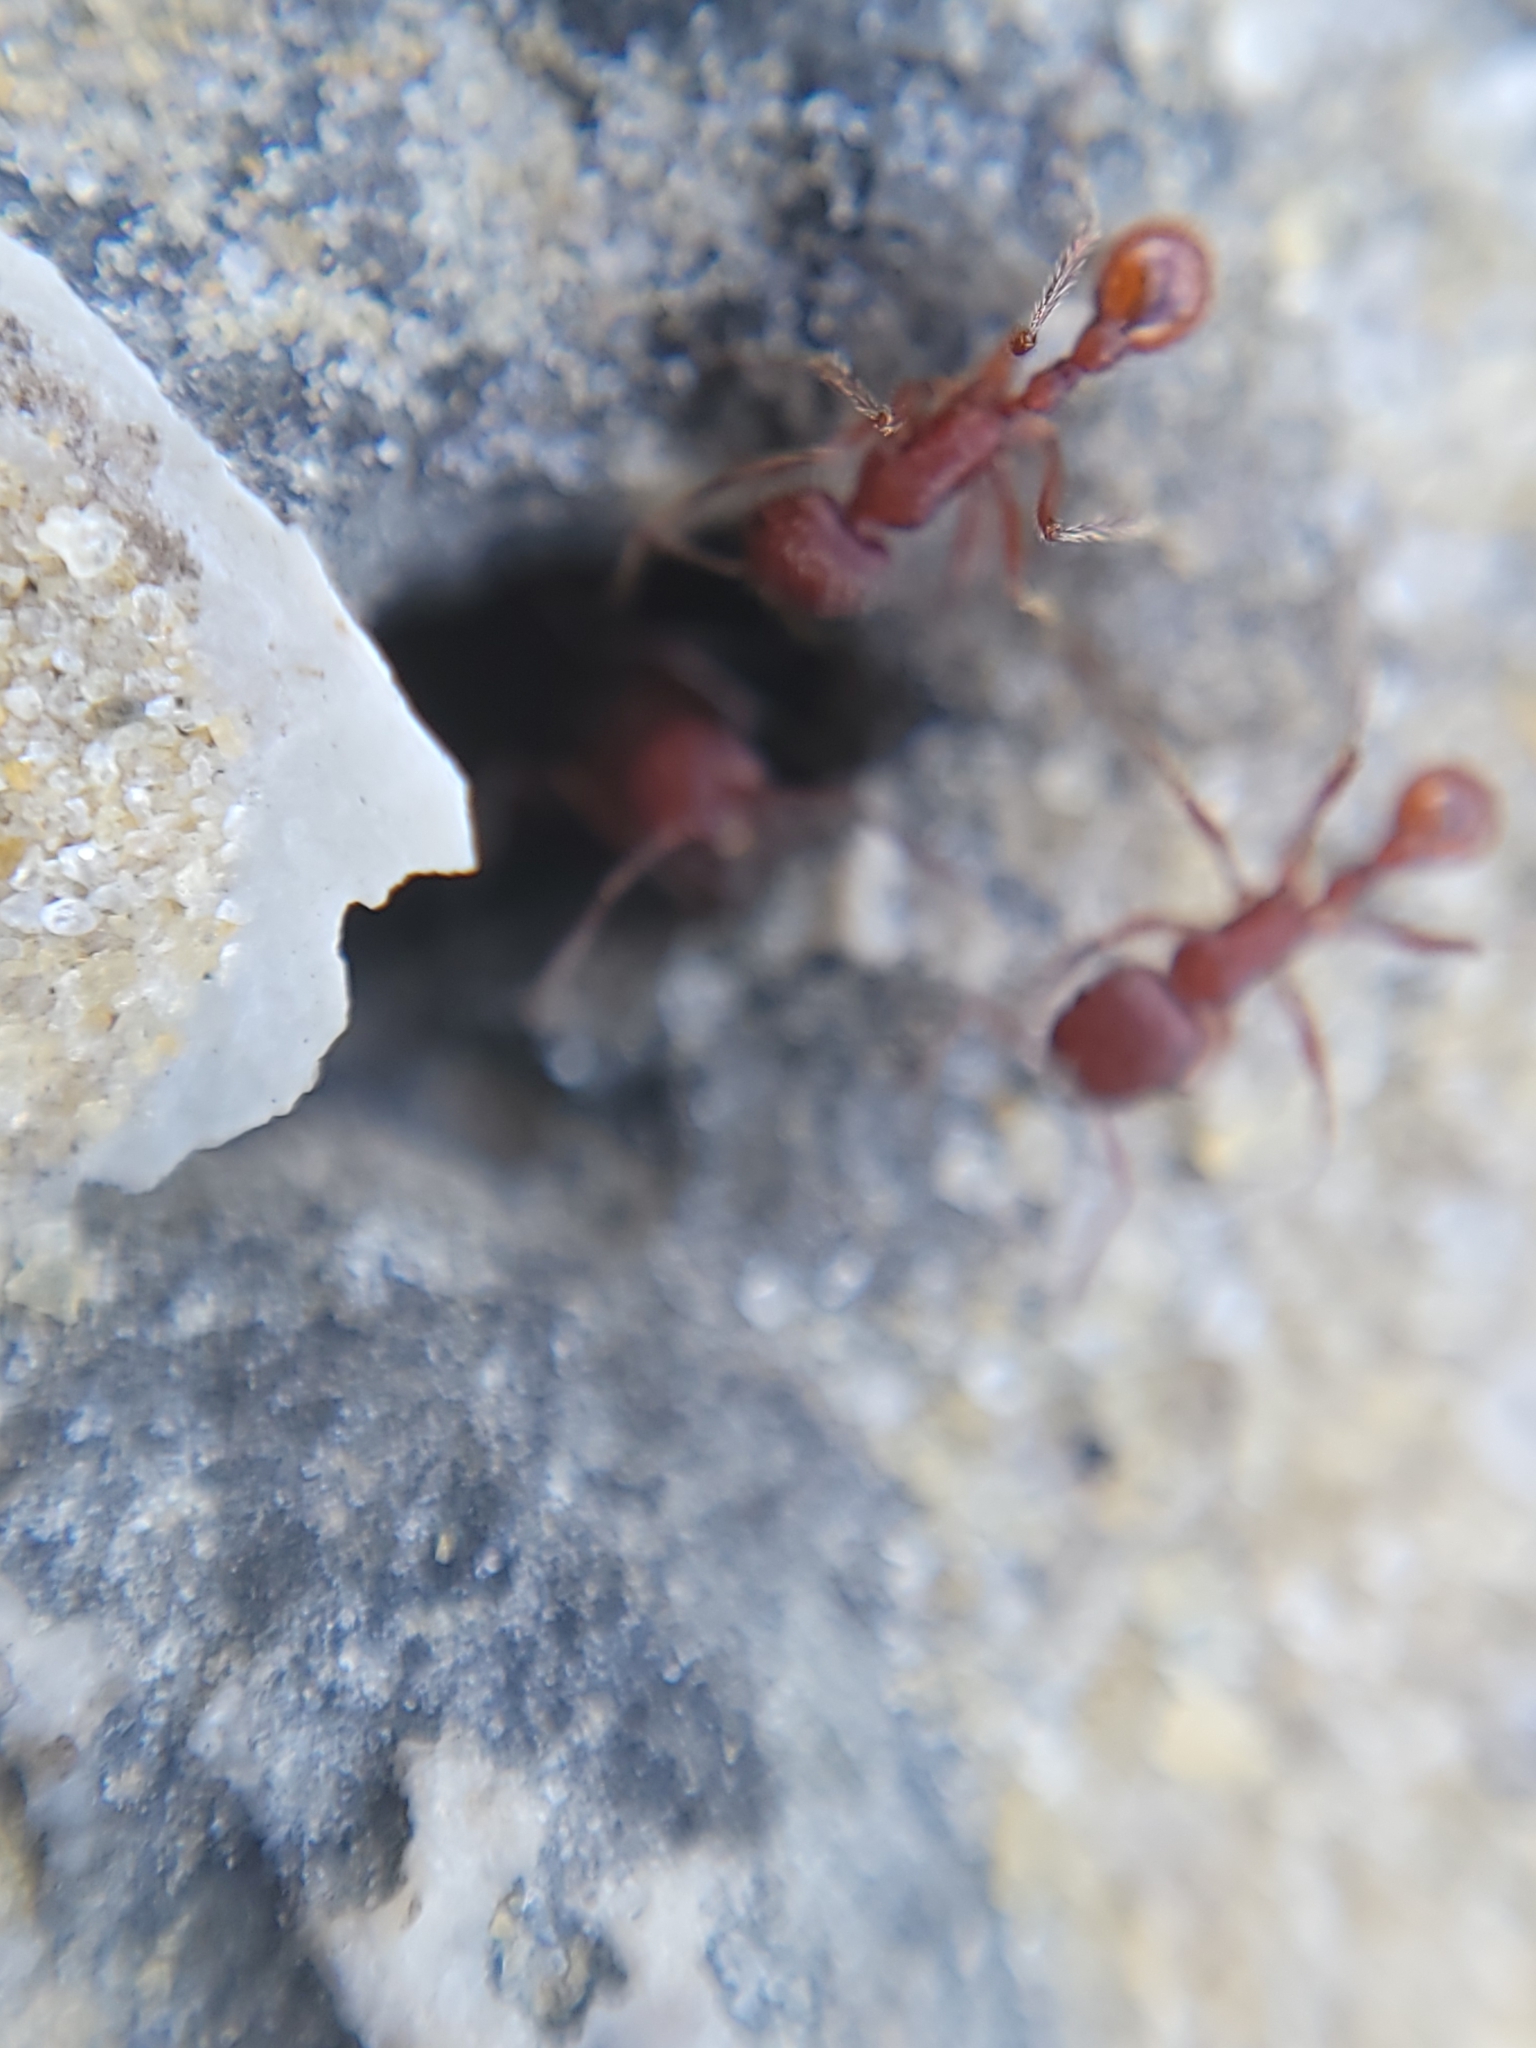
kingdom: Animalia
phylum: Arthropoda
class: Insecta
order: Hymenoptera
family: Formicidae
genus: Pogonomyrmex
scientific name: Pogonomyrmex badius
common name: Florida harvester ant
